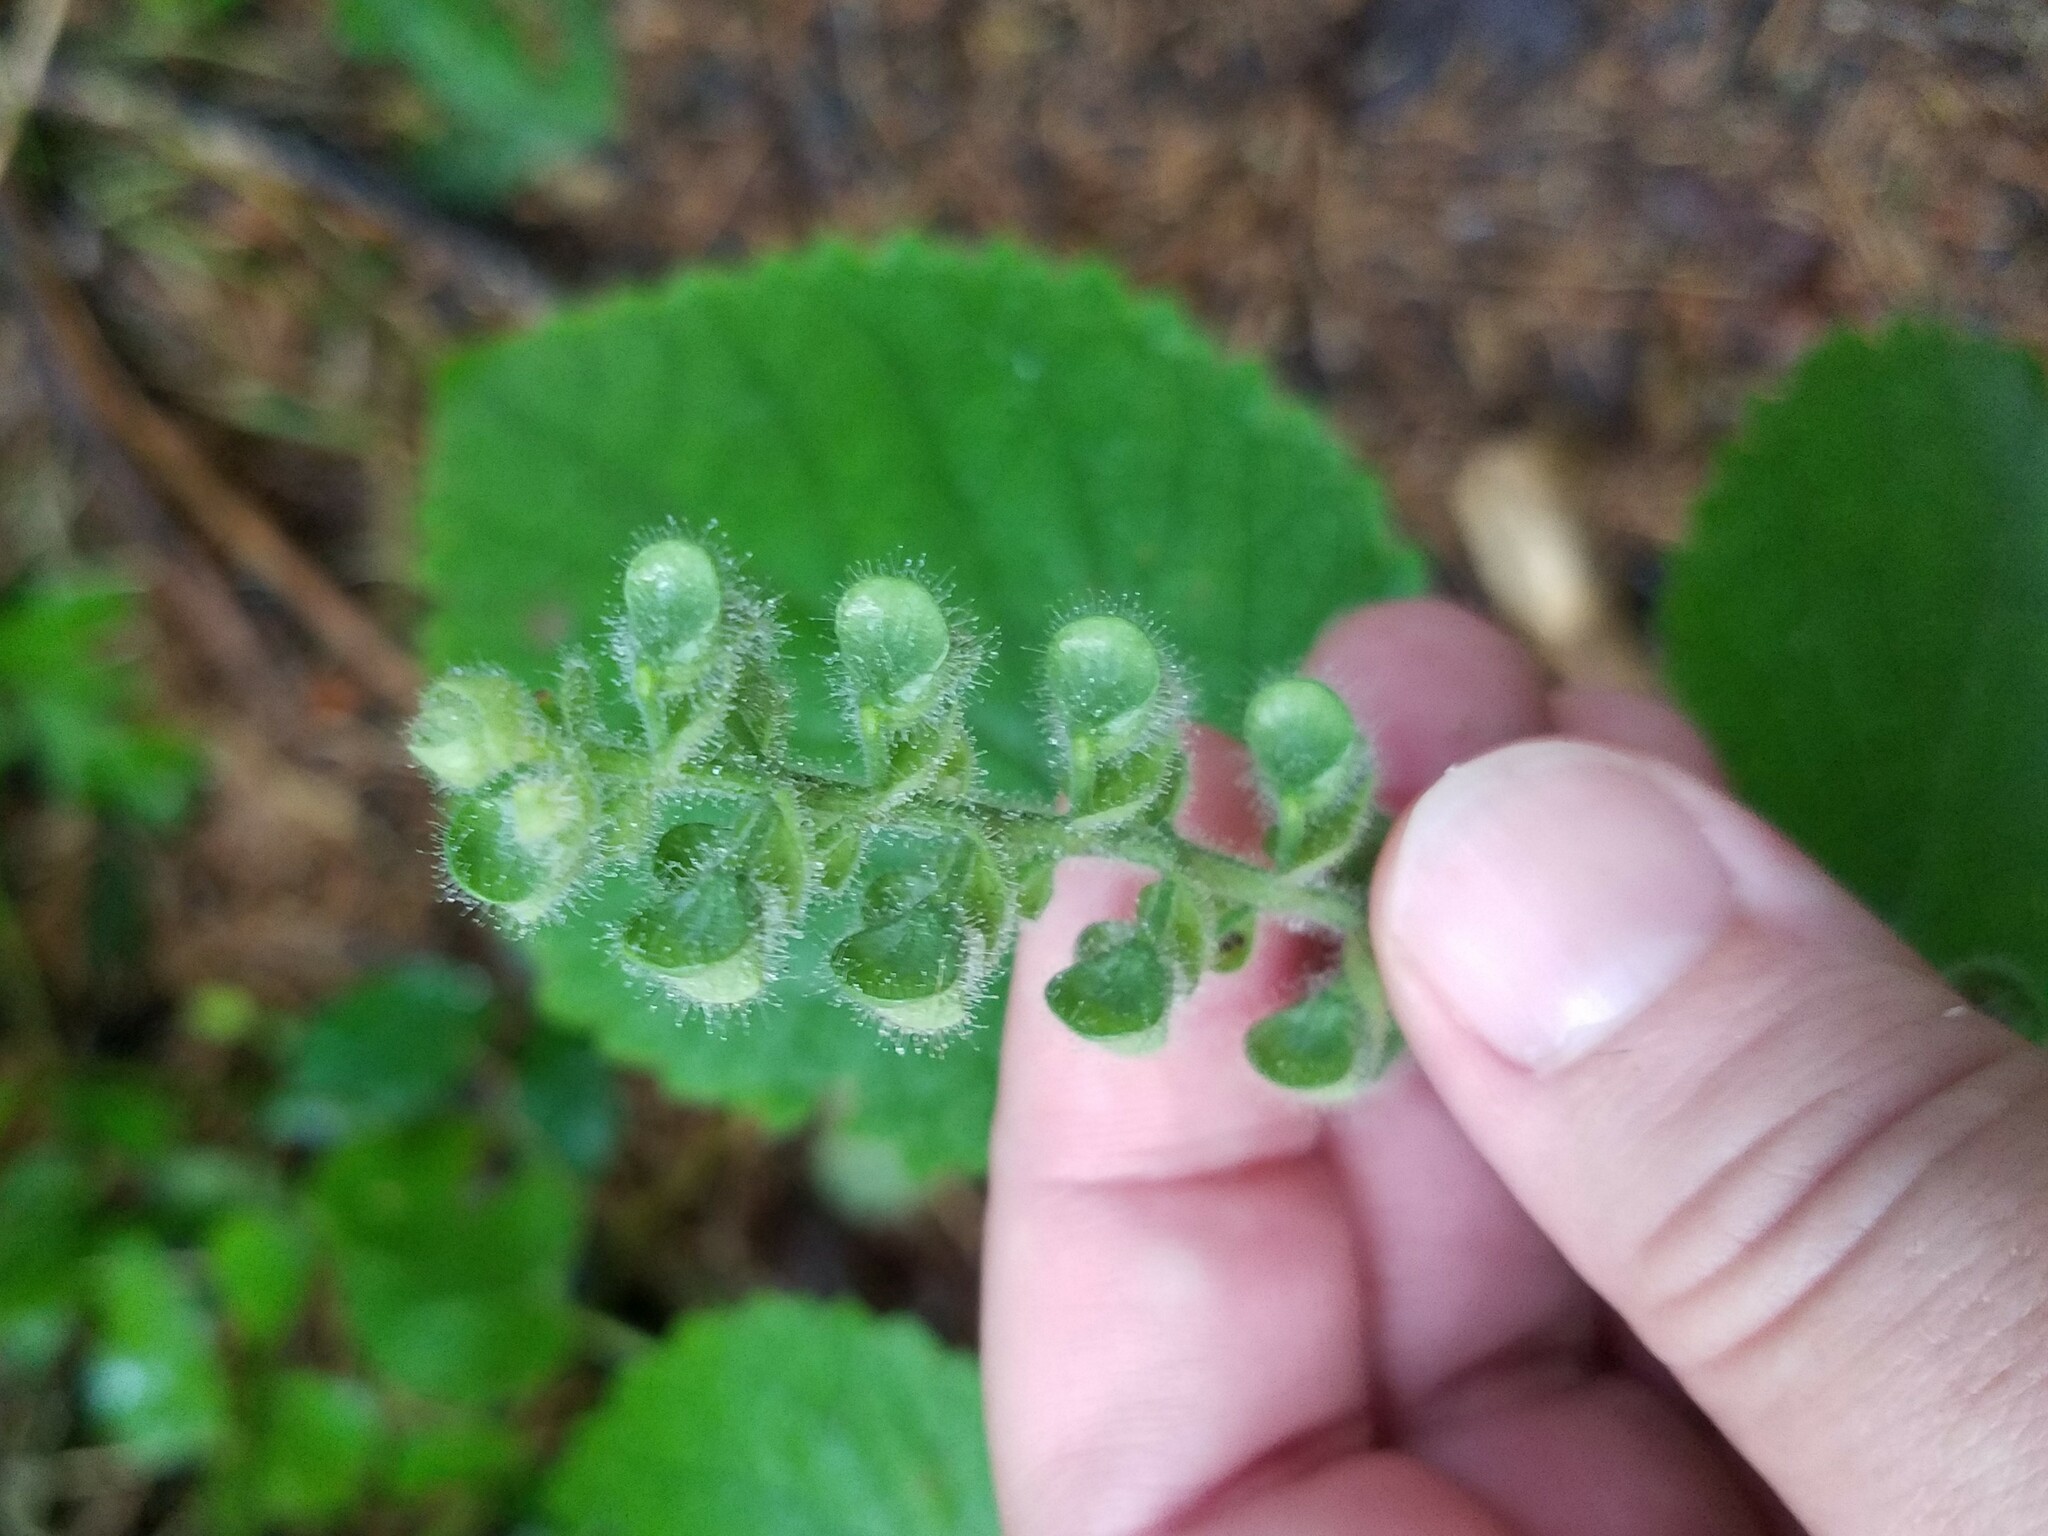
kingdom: Plantae
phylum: Tracheophyta
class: Magnoliopsida
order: Lamiales
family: Lamiaceae
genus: Scutellaria
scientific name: Scutellaria ovata
